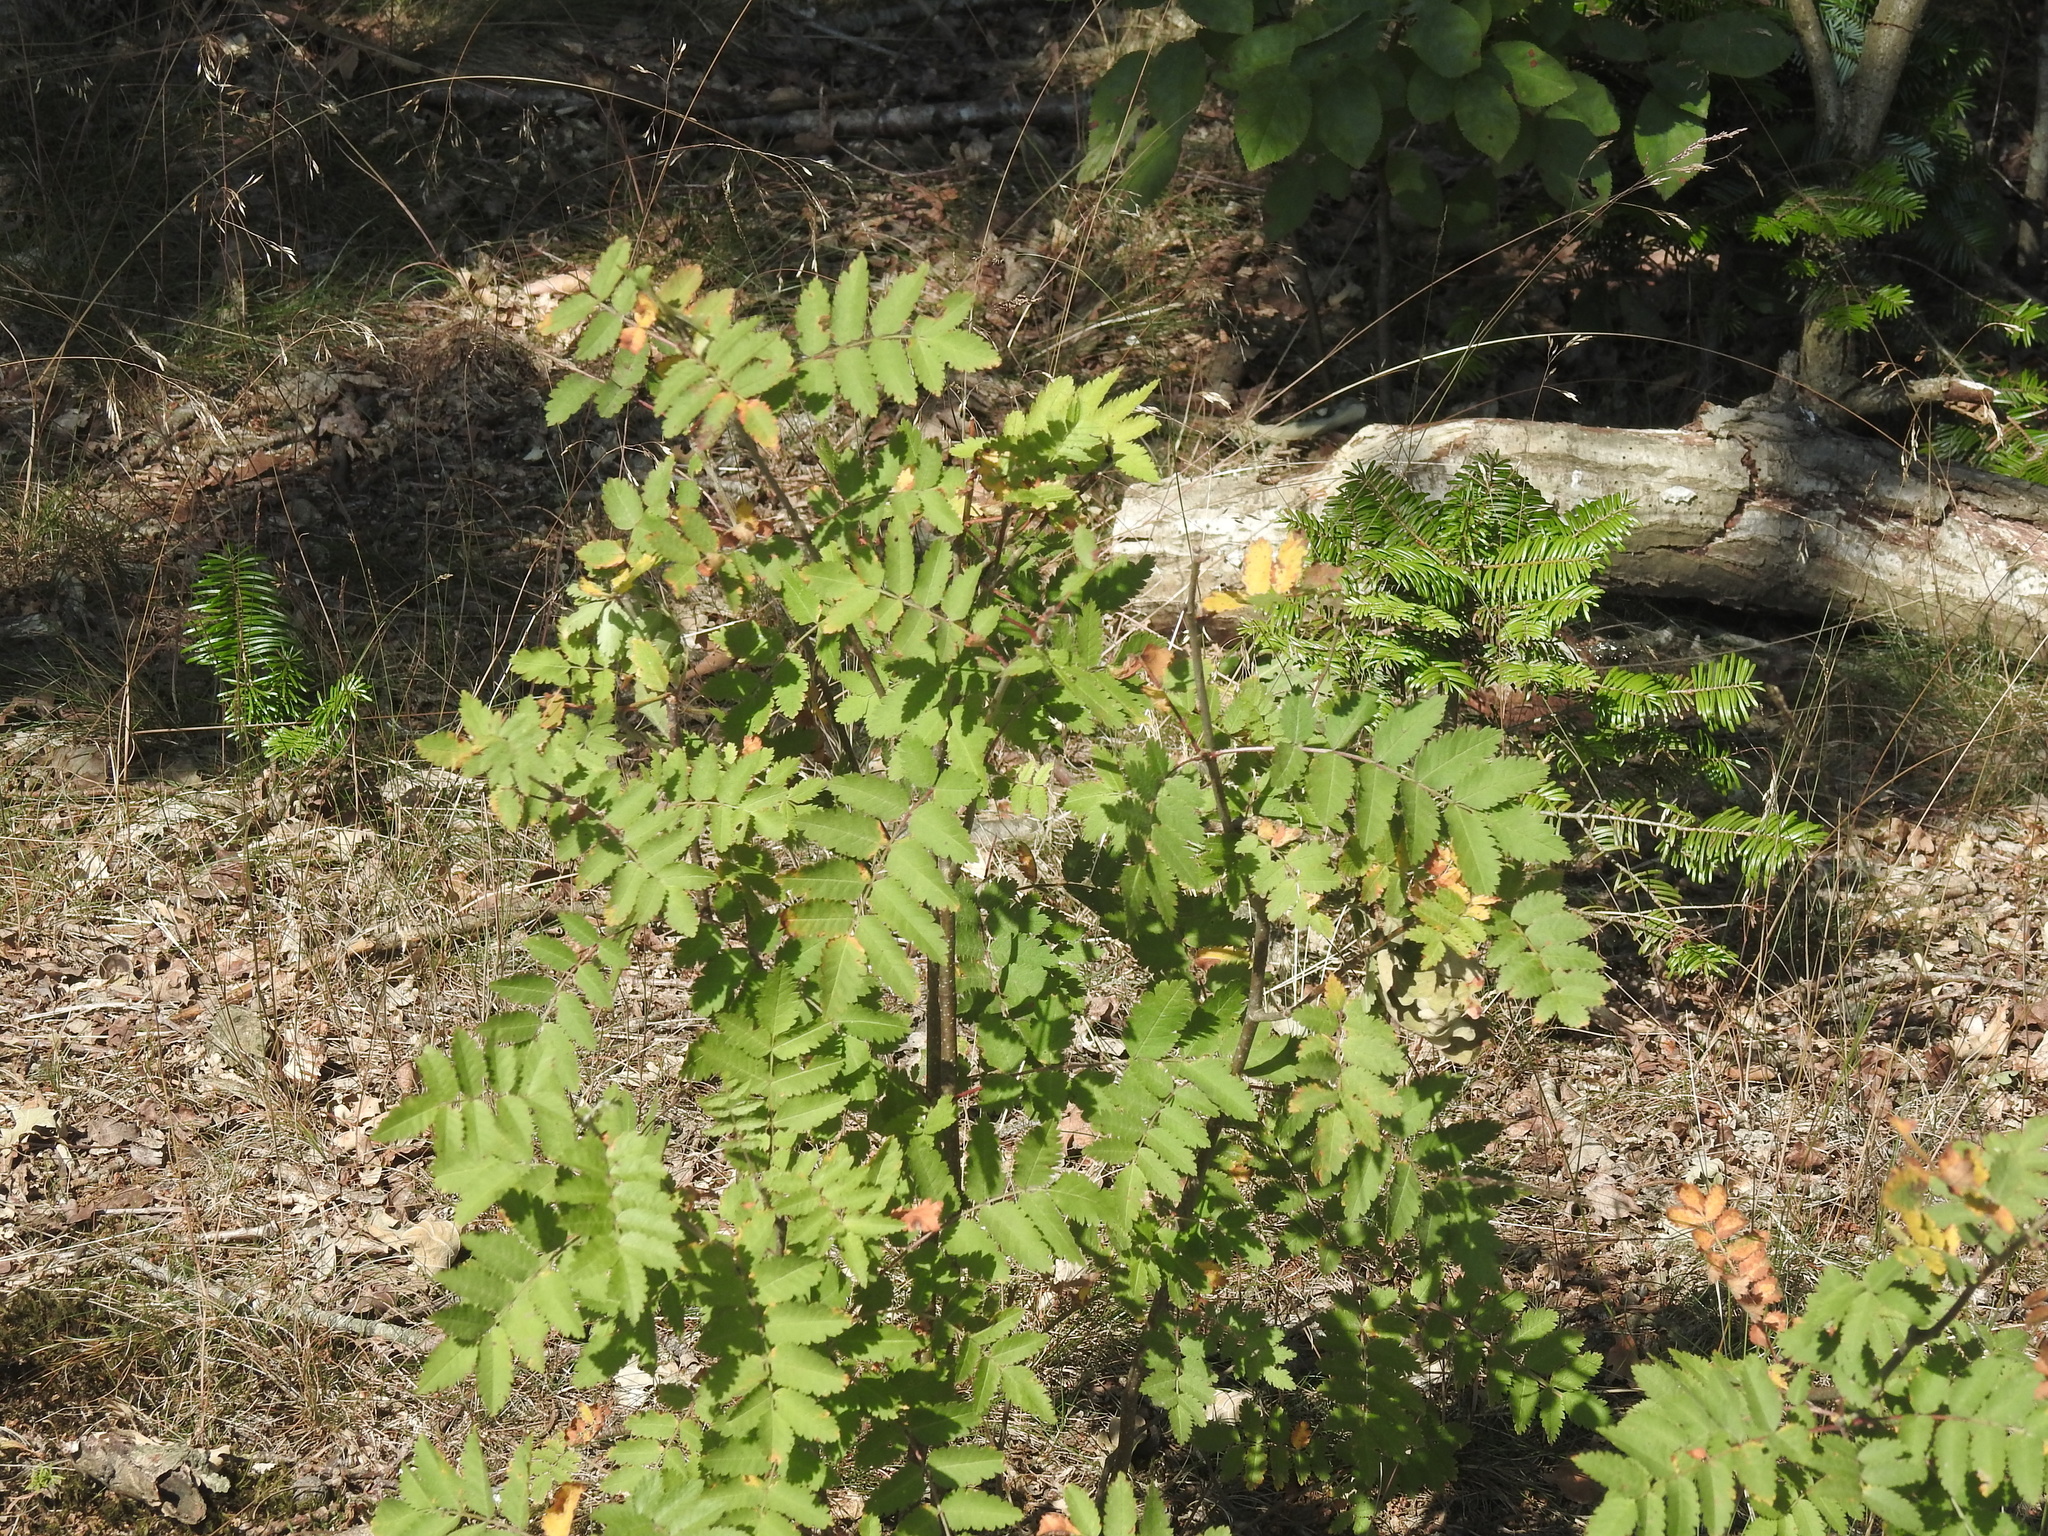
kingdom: Plantae
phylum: Tracheophyta
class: Magnoliopsida
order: Rosales
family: Rosaceae
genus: Sorbus
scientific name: Sorbus aucuparia
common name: Rowan
